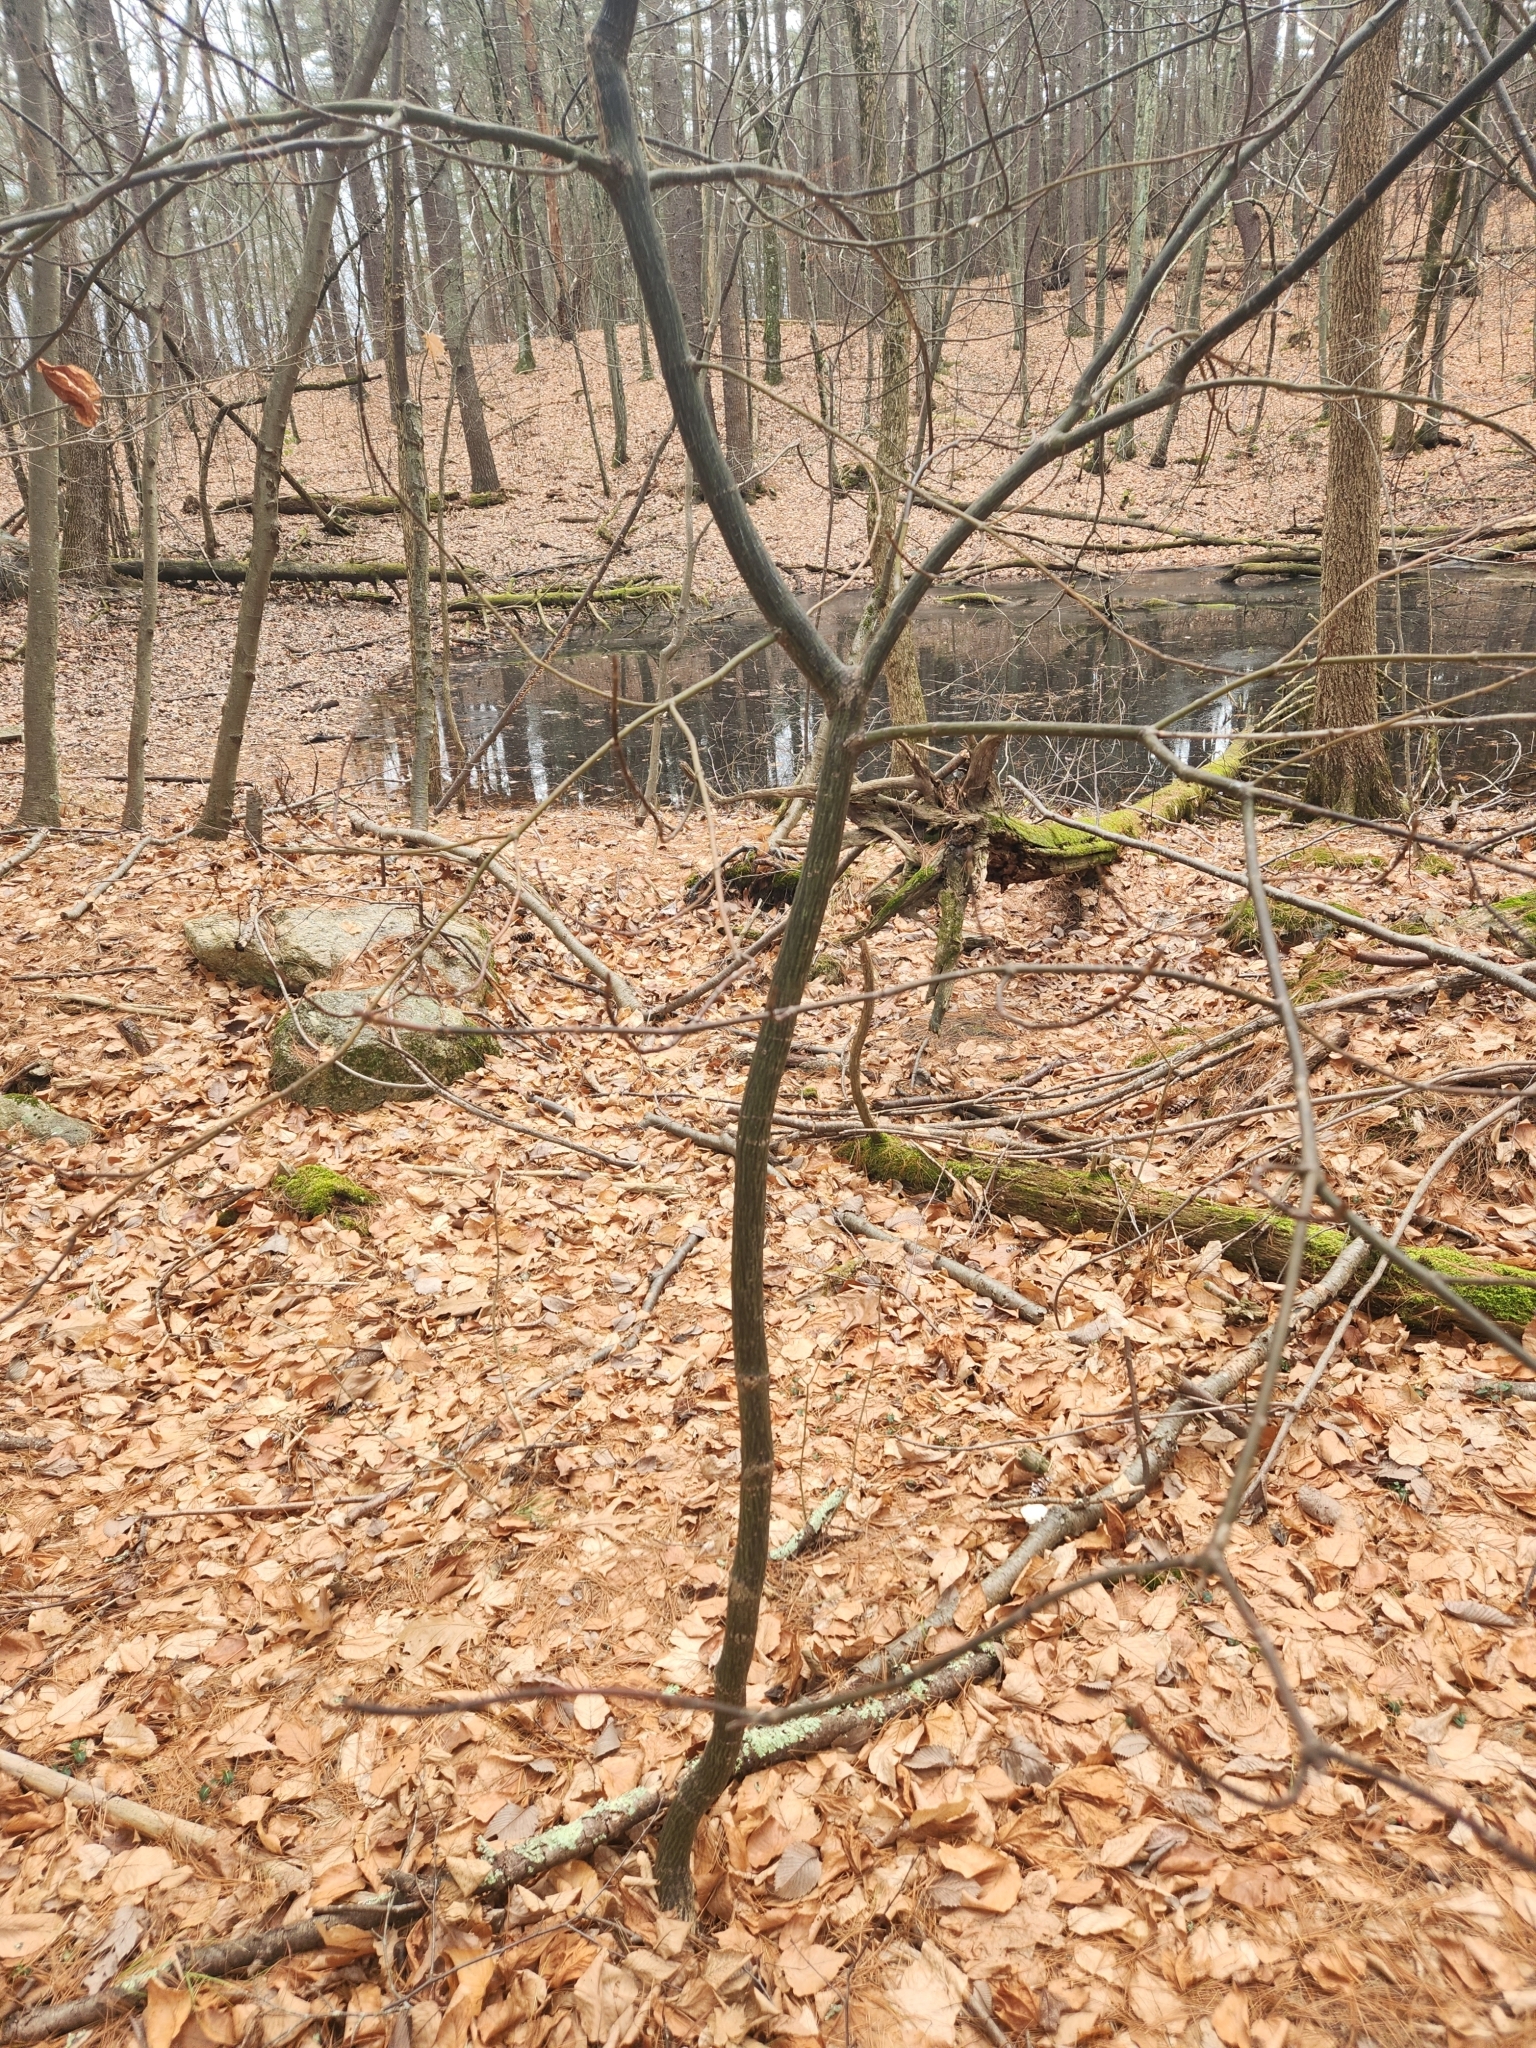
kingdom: Plantae
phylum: Tracheophyta
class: Magnoliopsida
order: Sapindales
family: Sapindaceae
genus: Acer
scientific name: Acer pensylvanicum
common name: Moosewood
